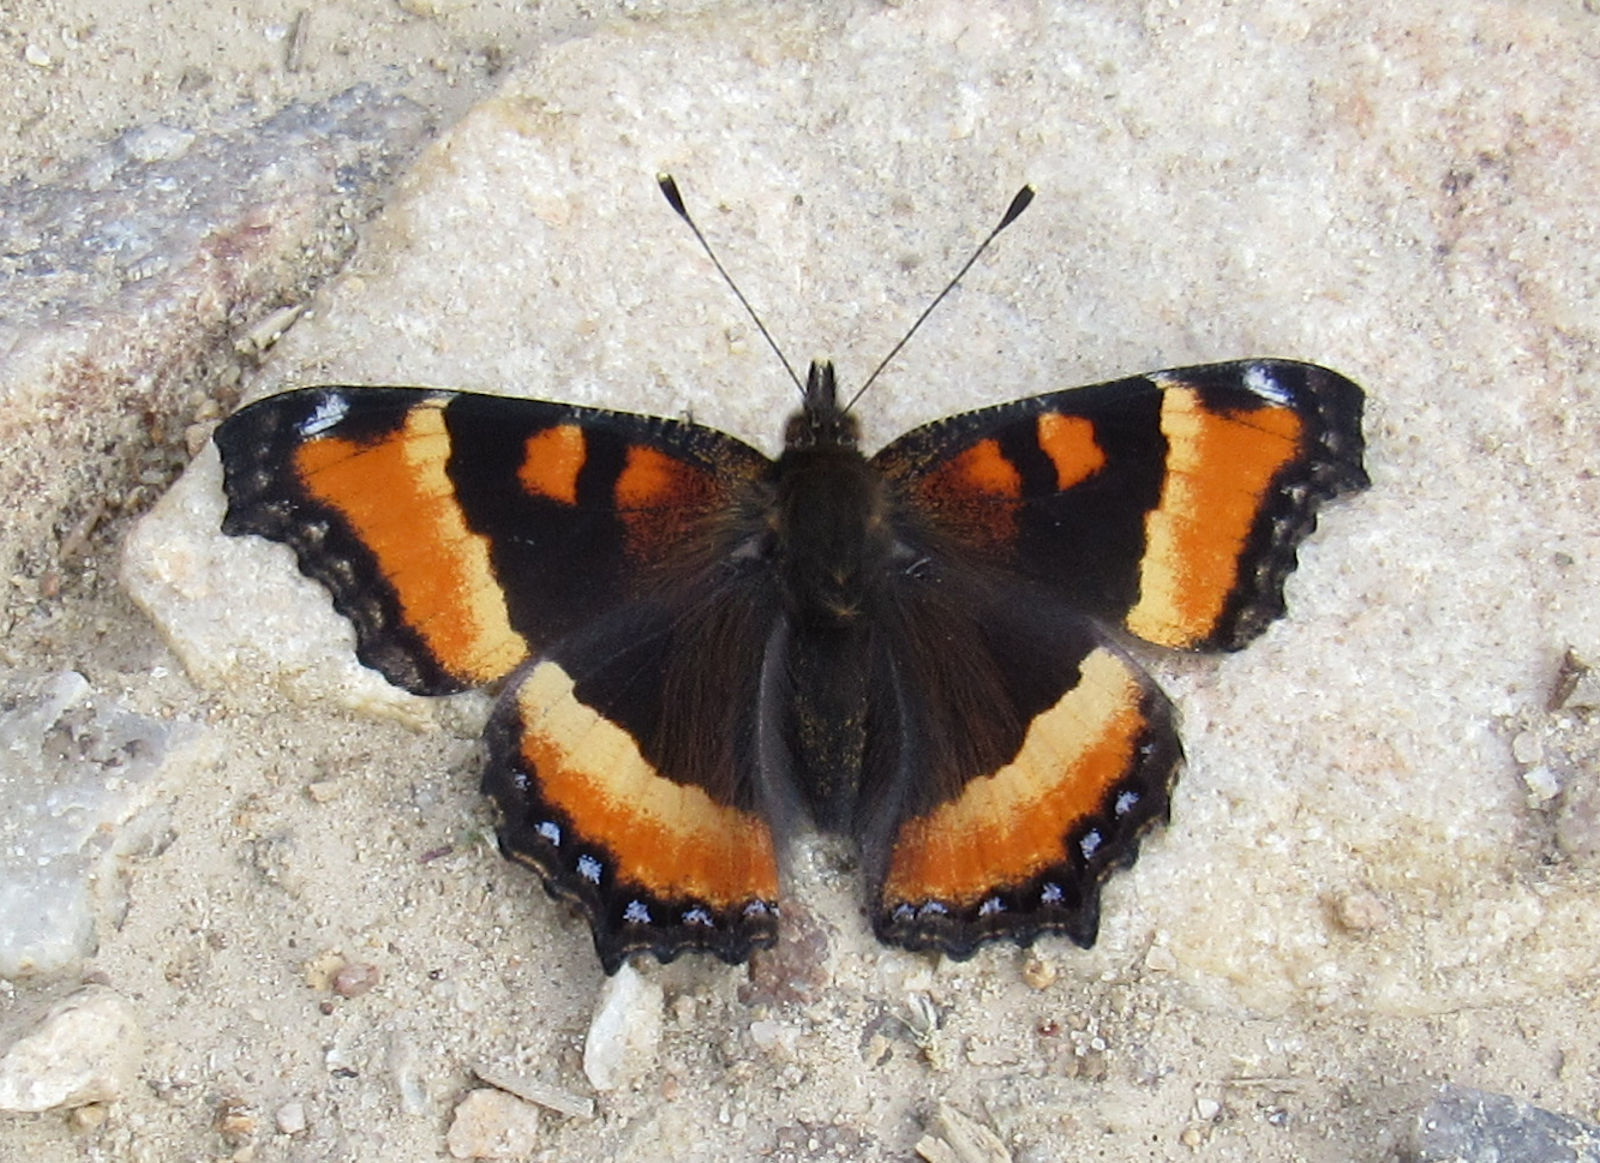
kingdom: Animalia
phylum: Arthropoda
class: Insecta
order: Lepidoptera
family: Nymphalidae
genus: Aglais
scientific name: Aglais milberti
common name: Milbert's tortoiseshell
